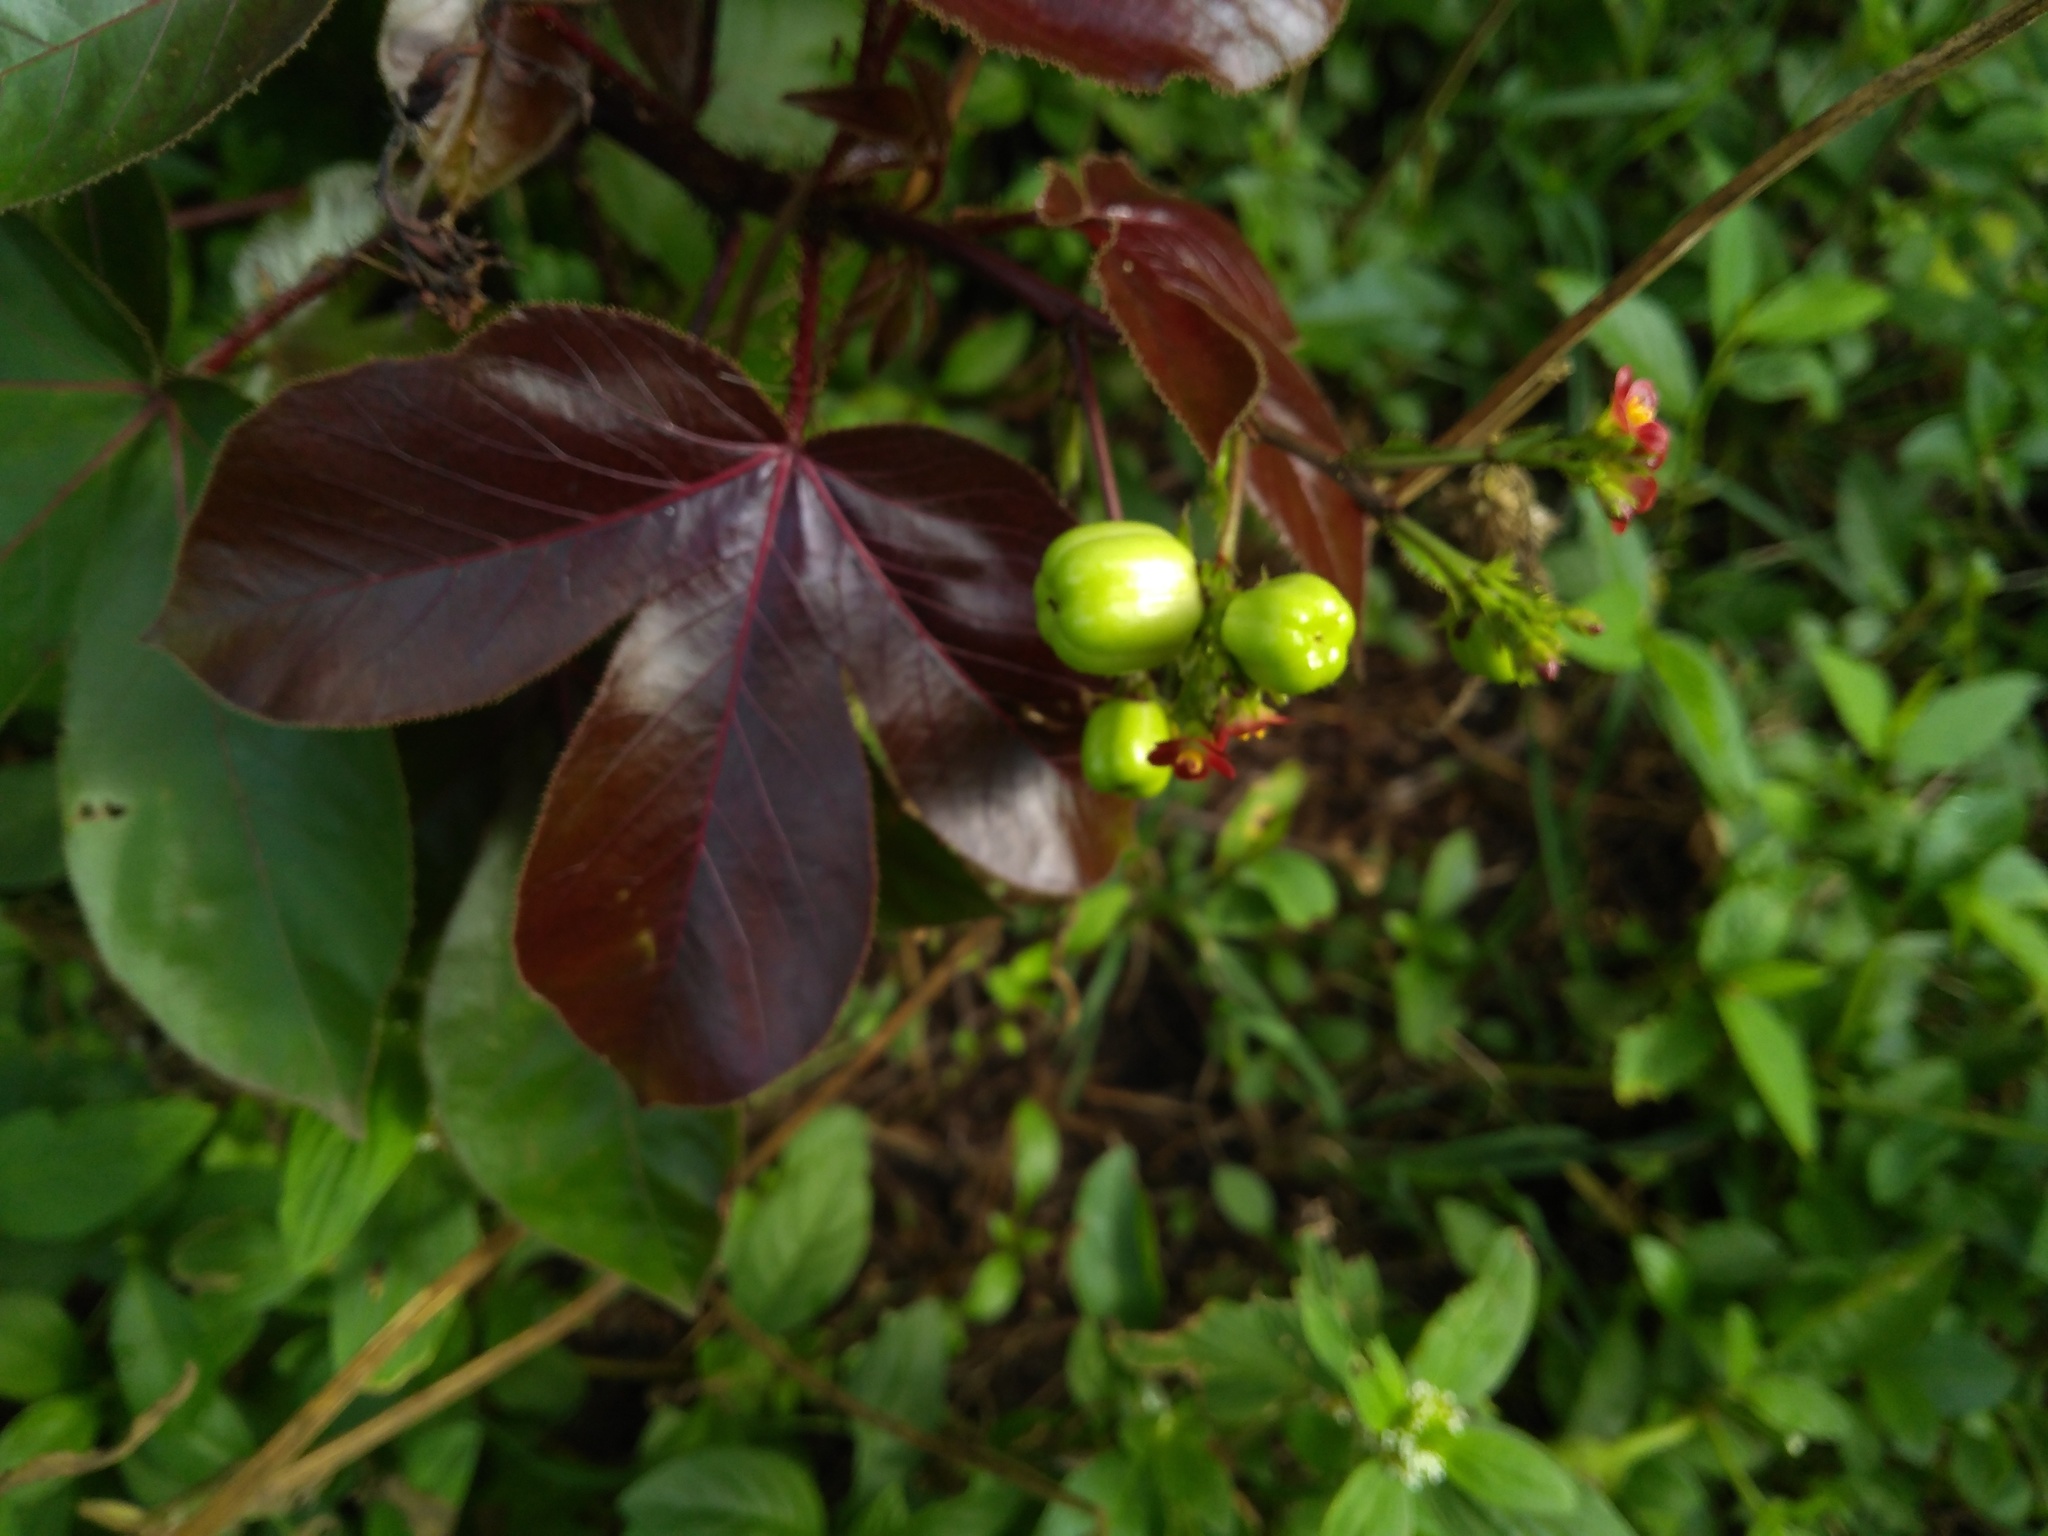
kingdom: Plantae
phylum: Tracheophyta
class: Magnoliopsida
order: Malpighiales
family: Euphorbiaceae
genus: Jatropha
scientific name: Jatropha gossypiifolia
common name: Bellyache bush
